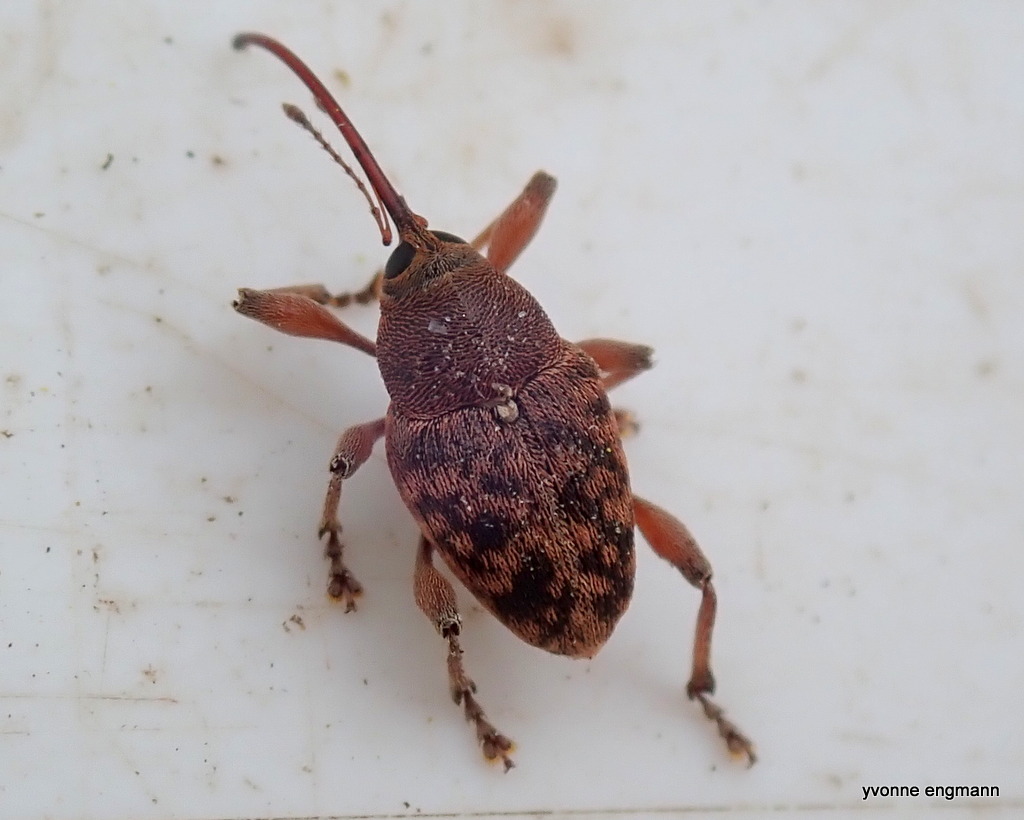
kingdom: Animalia
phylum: Arthropoda
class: Insecta
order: Coleoptera
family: Curculionidae
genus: Curculio
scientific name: Curculio glandium
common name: Acorn weevil
